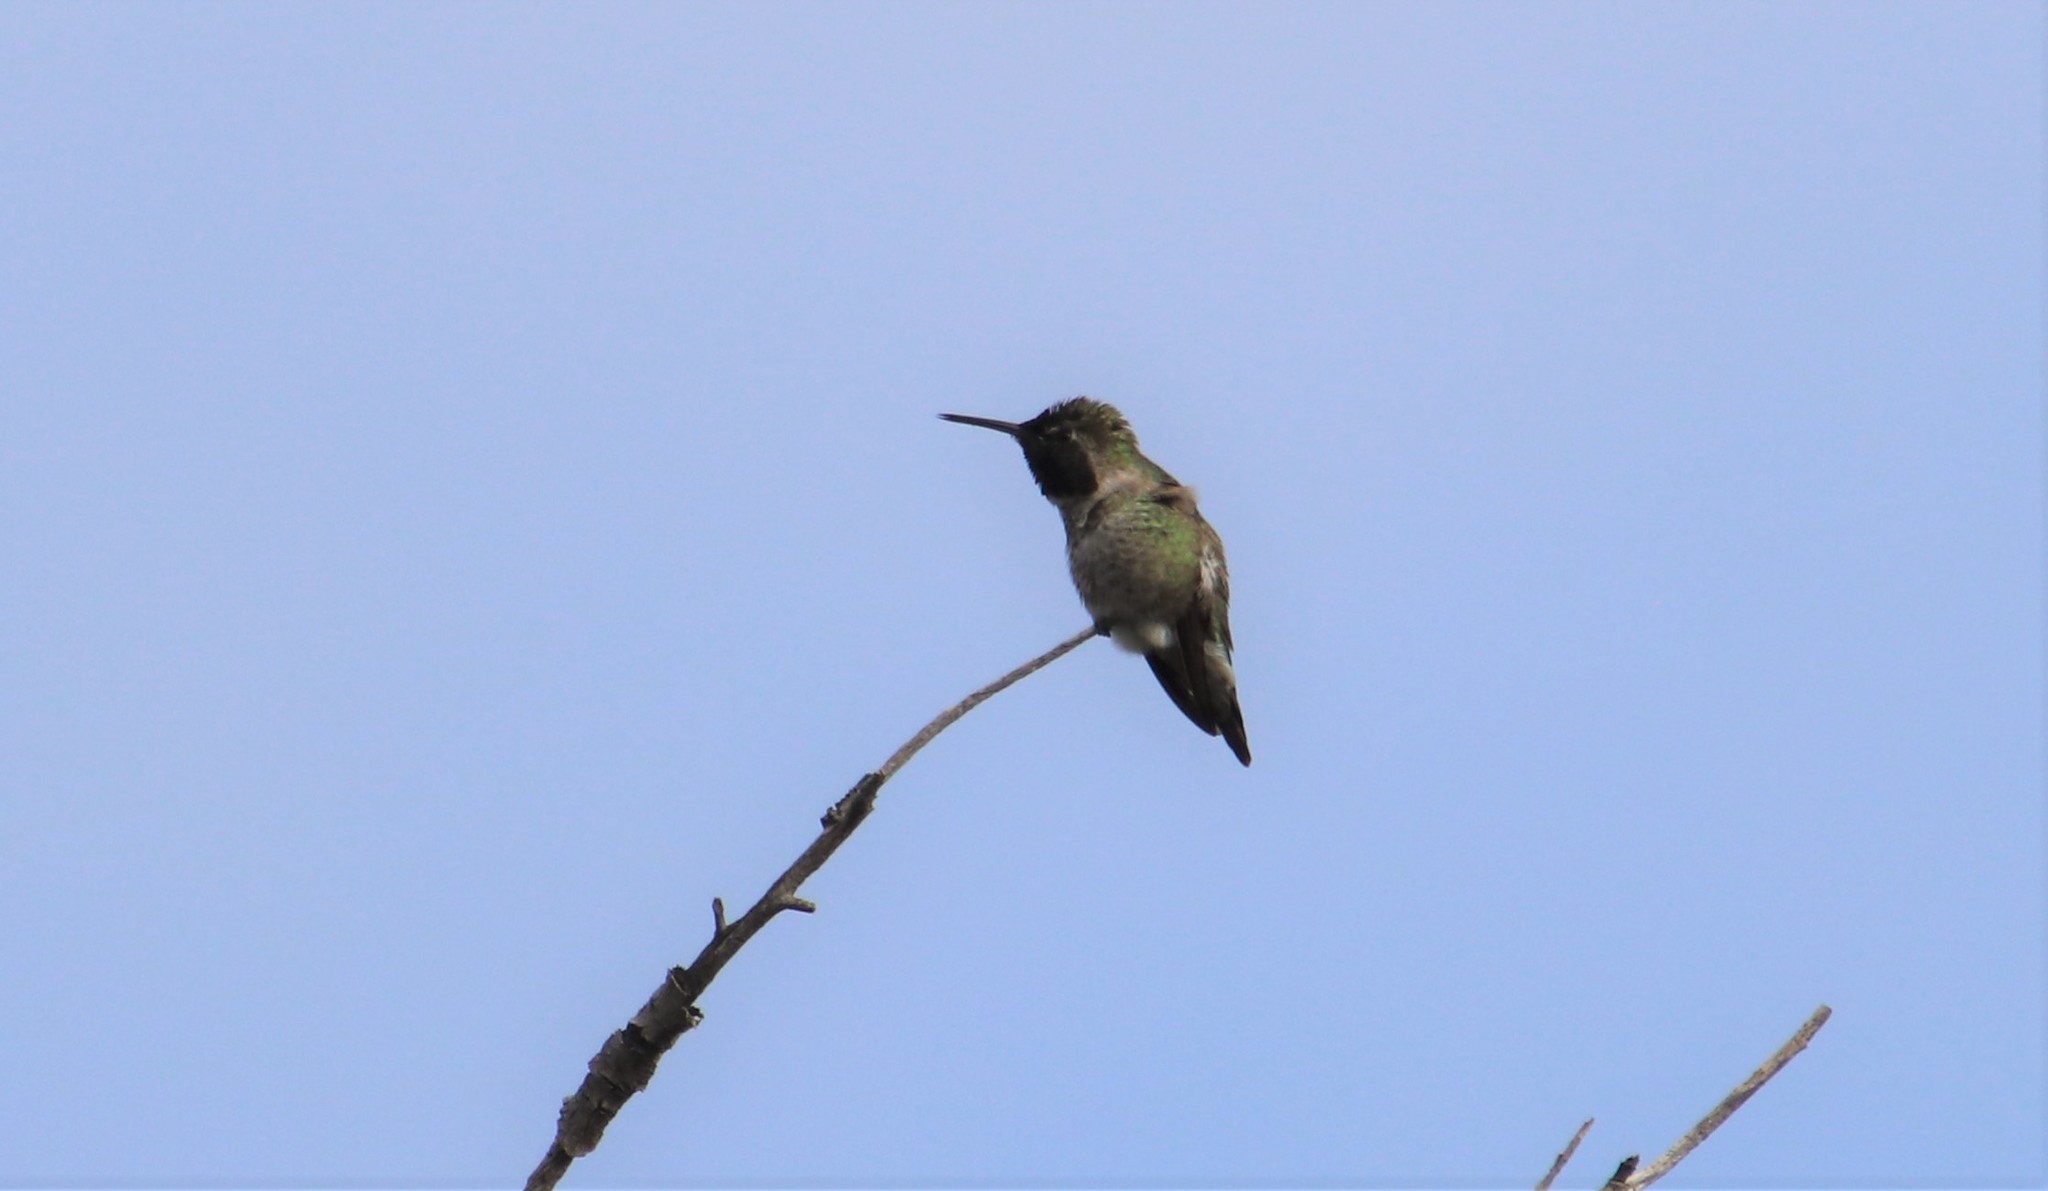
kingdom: Animalia
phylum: Chordata
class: Aves
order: Apodiformes
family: Trochilidae
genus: Calypte
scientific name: Calypte anna
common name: Anna's hummingbird
